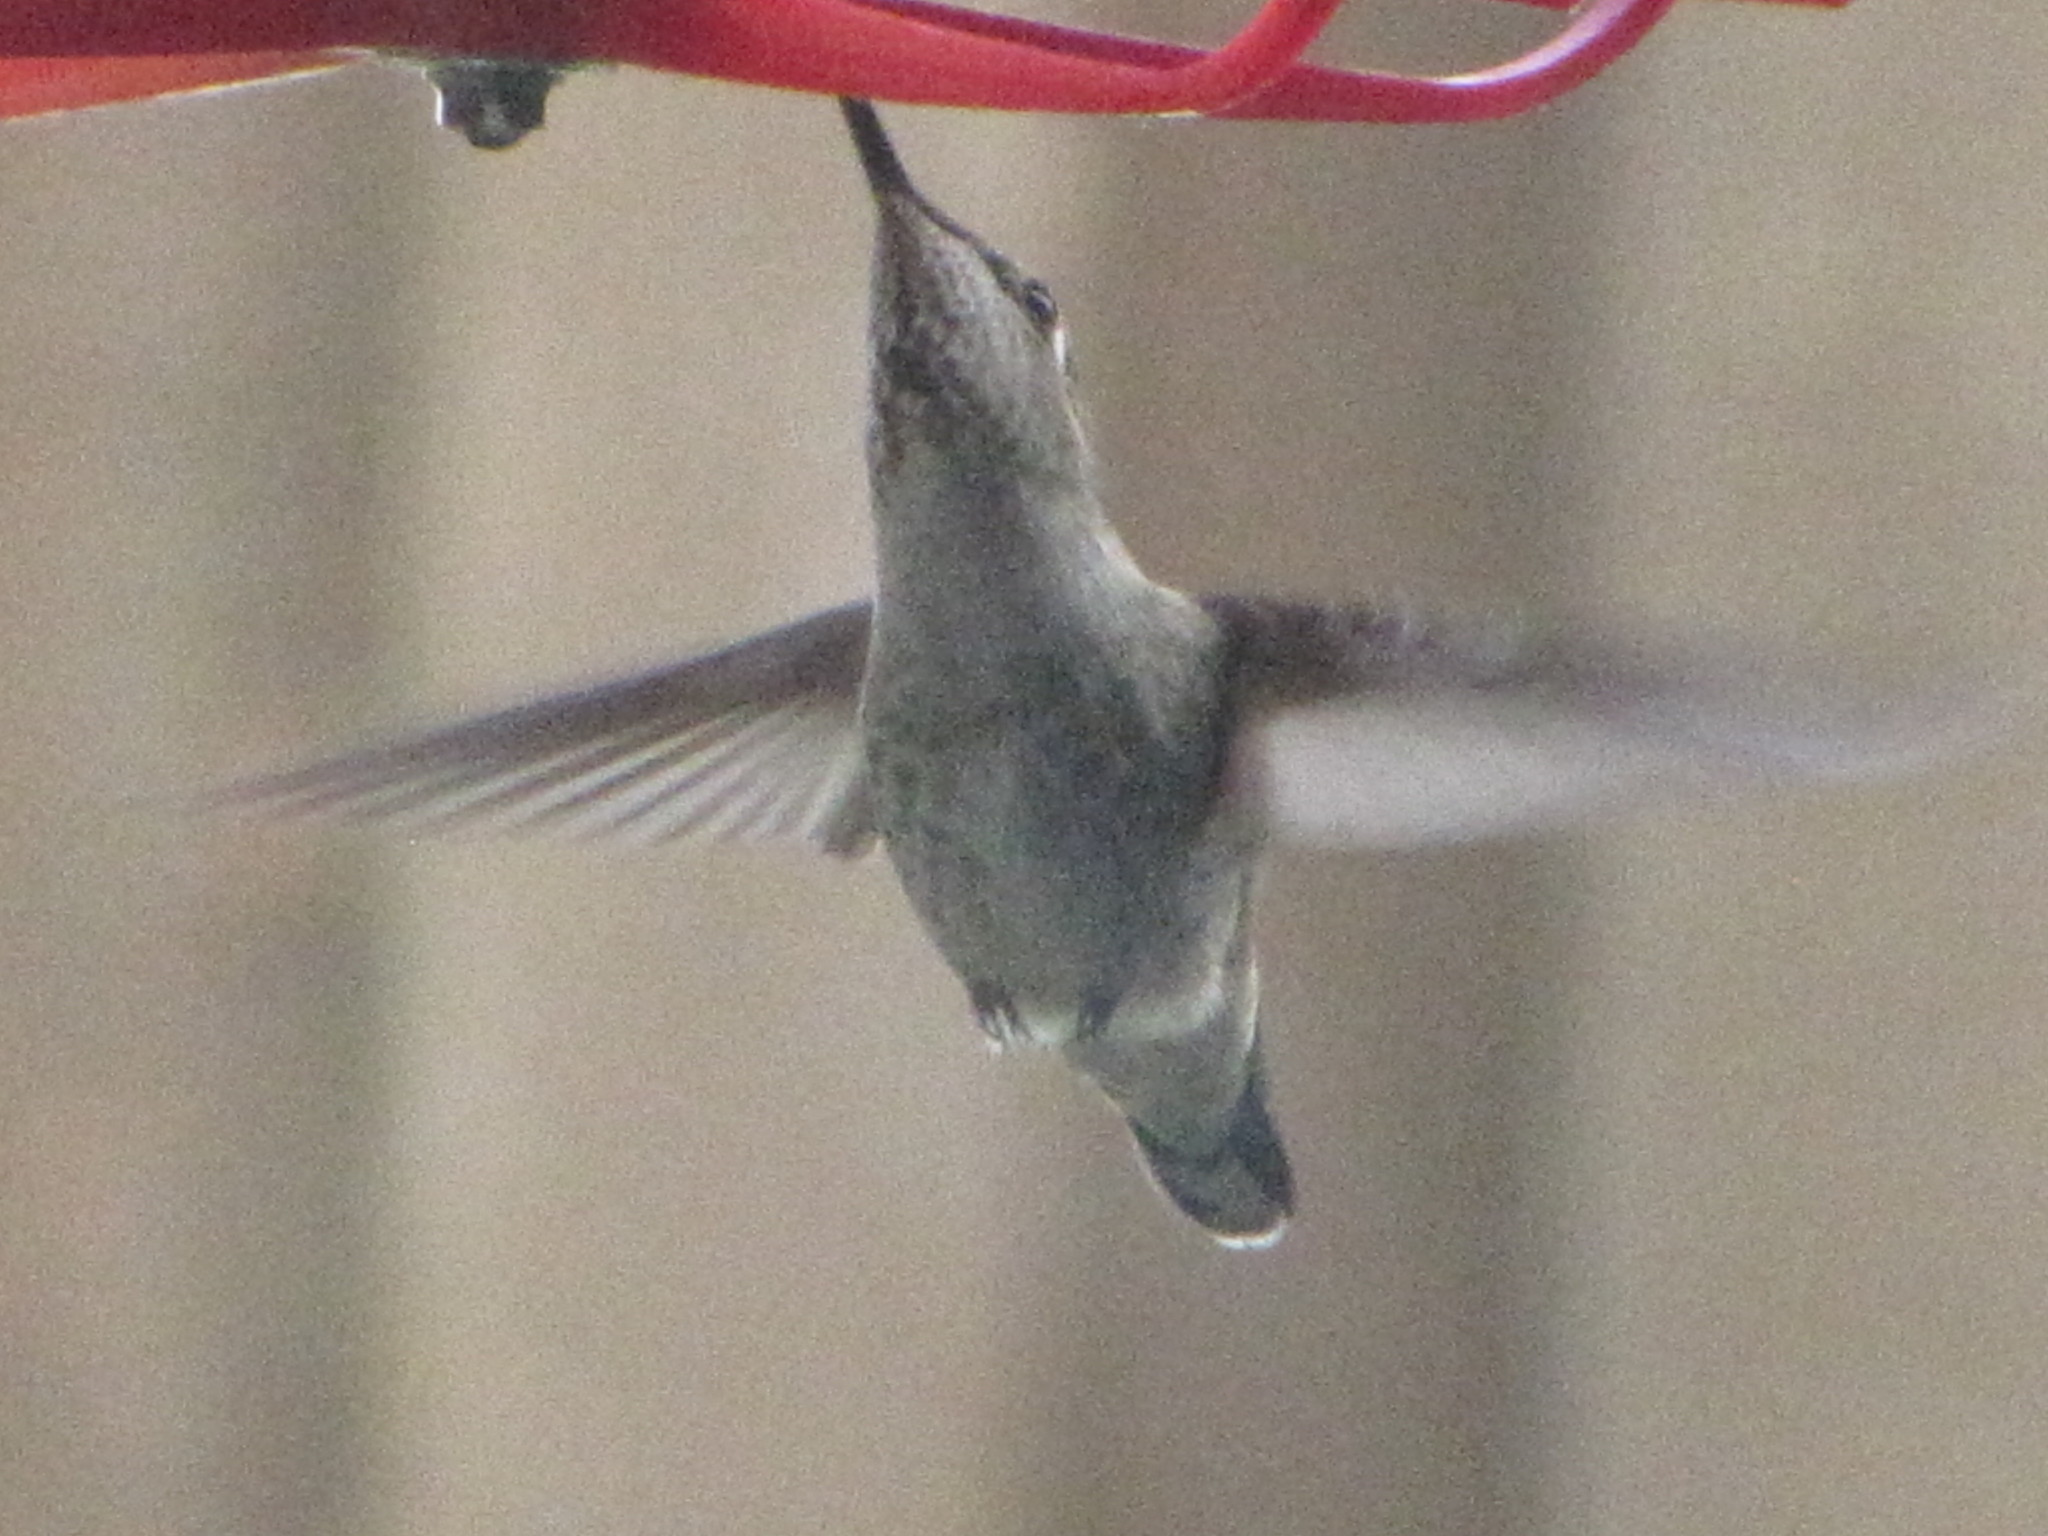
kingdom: Animalia
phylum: Chordata
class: Aves
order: Apodiformes
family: Trochilidae
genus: Calypte
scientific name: Calypte anna
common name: Anna's hummingbird
